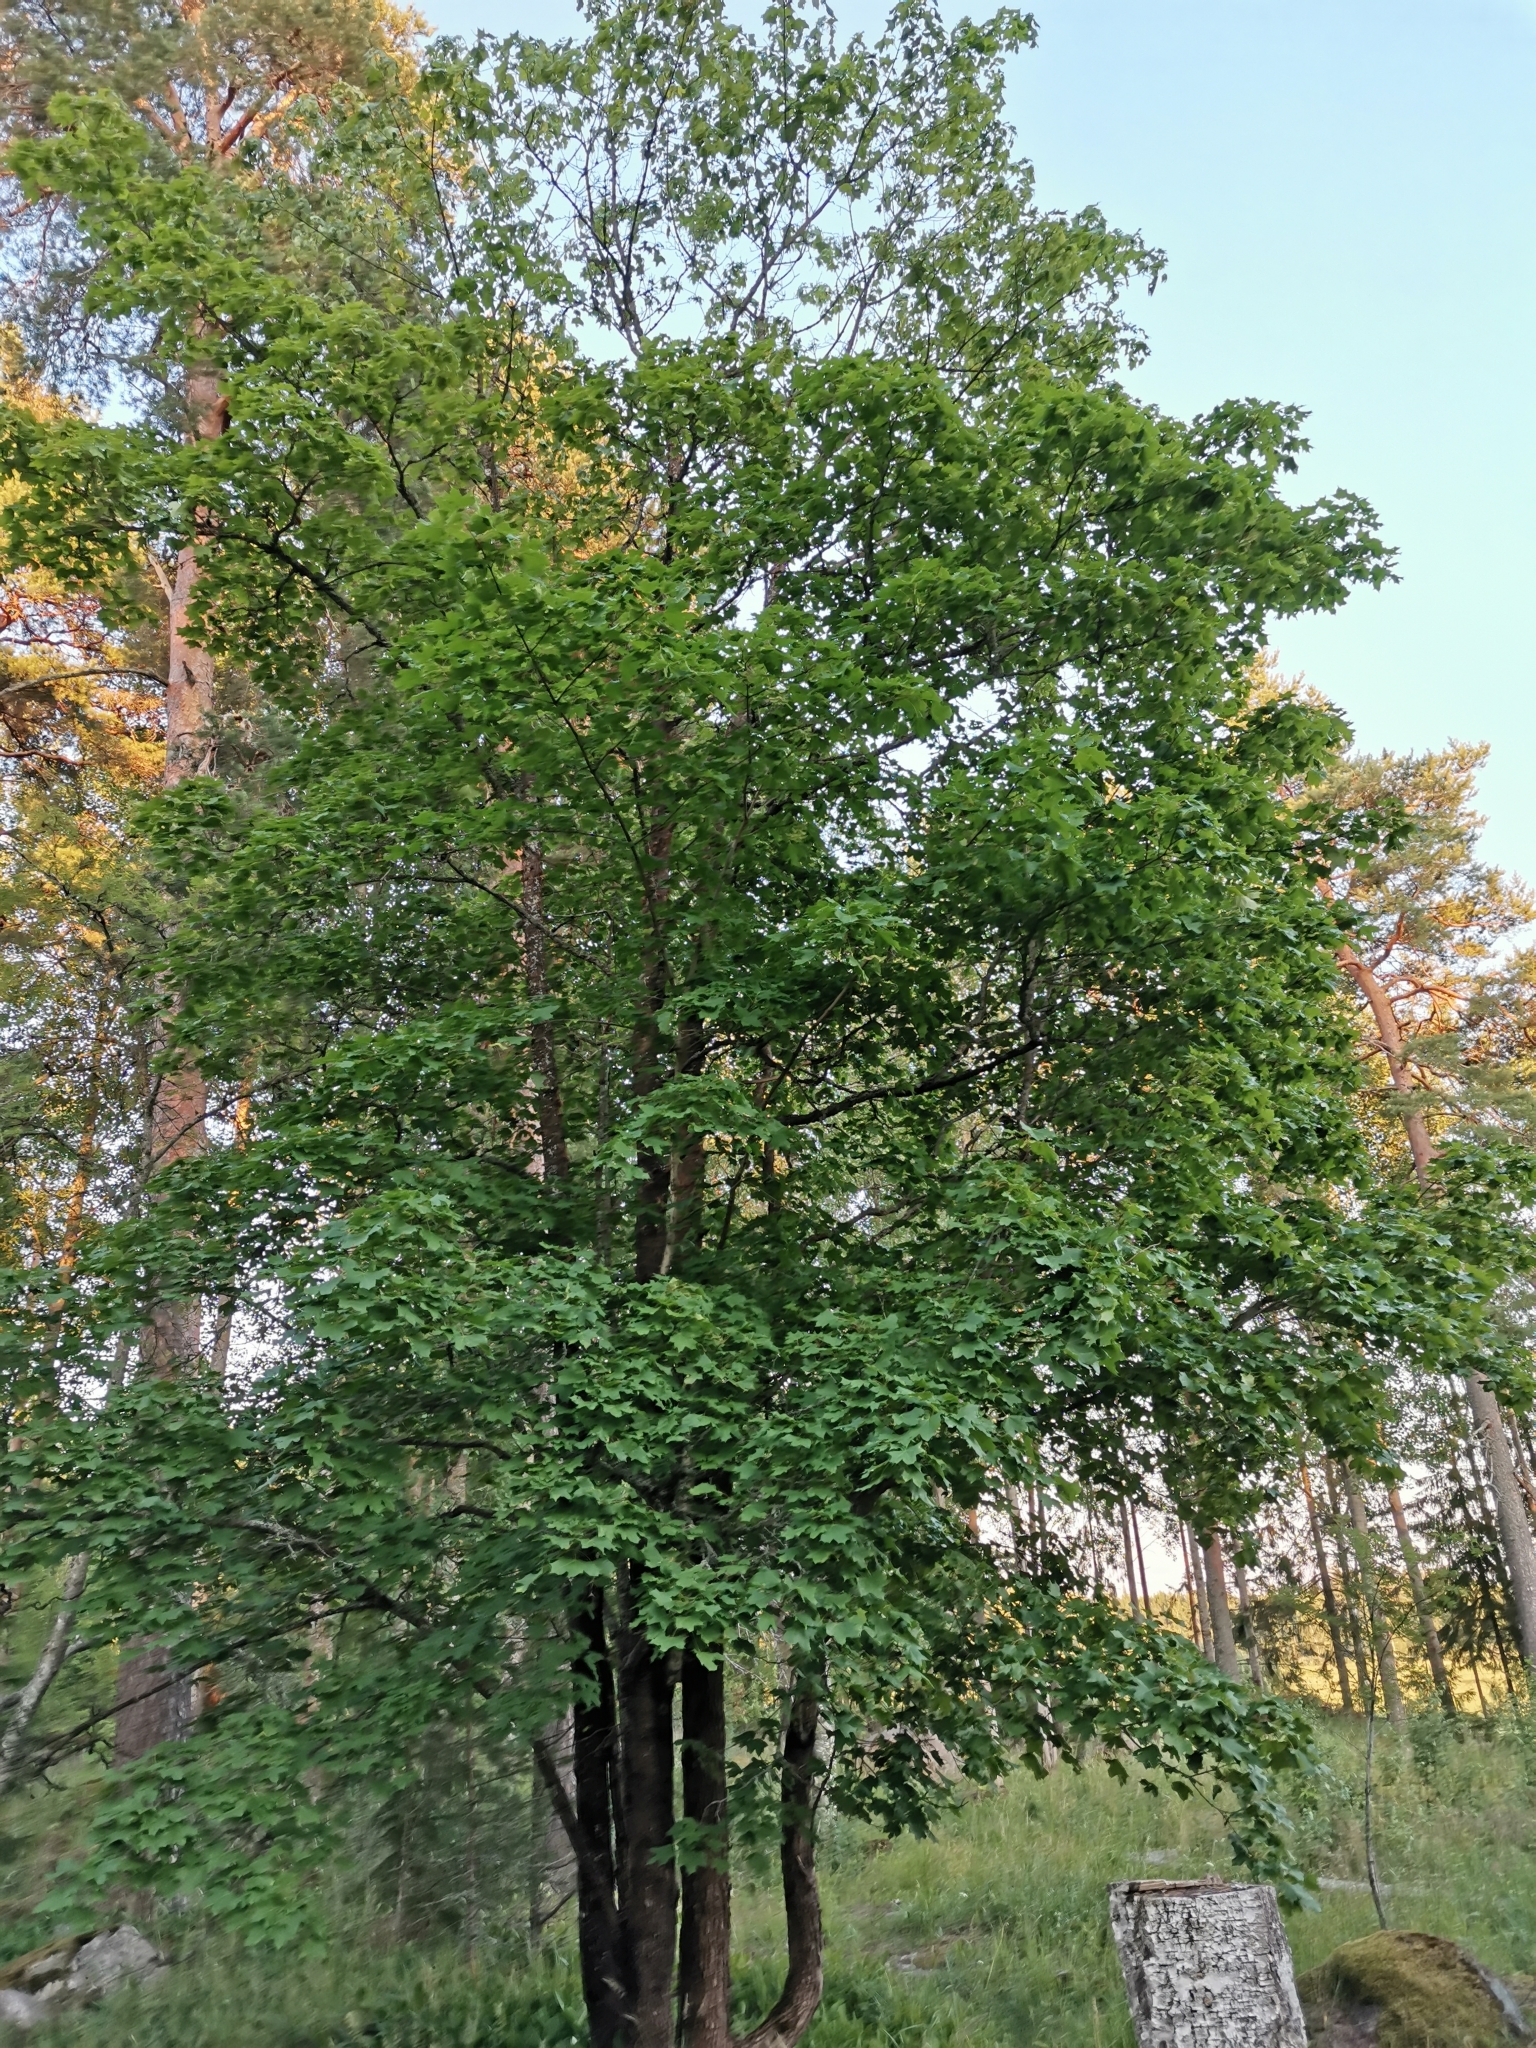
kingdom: Plantae
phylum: Tracheophyta
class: Magnoliopsida
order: Sapindales
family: Sapindaceae
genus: Acer
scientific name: Acer platanoides
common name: Norway maple
